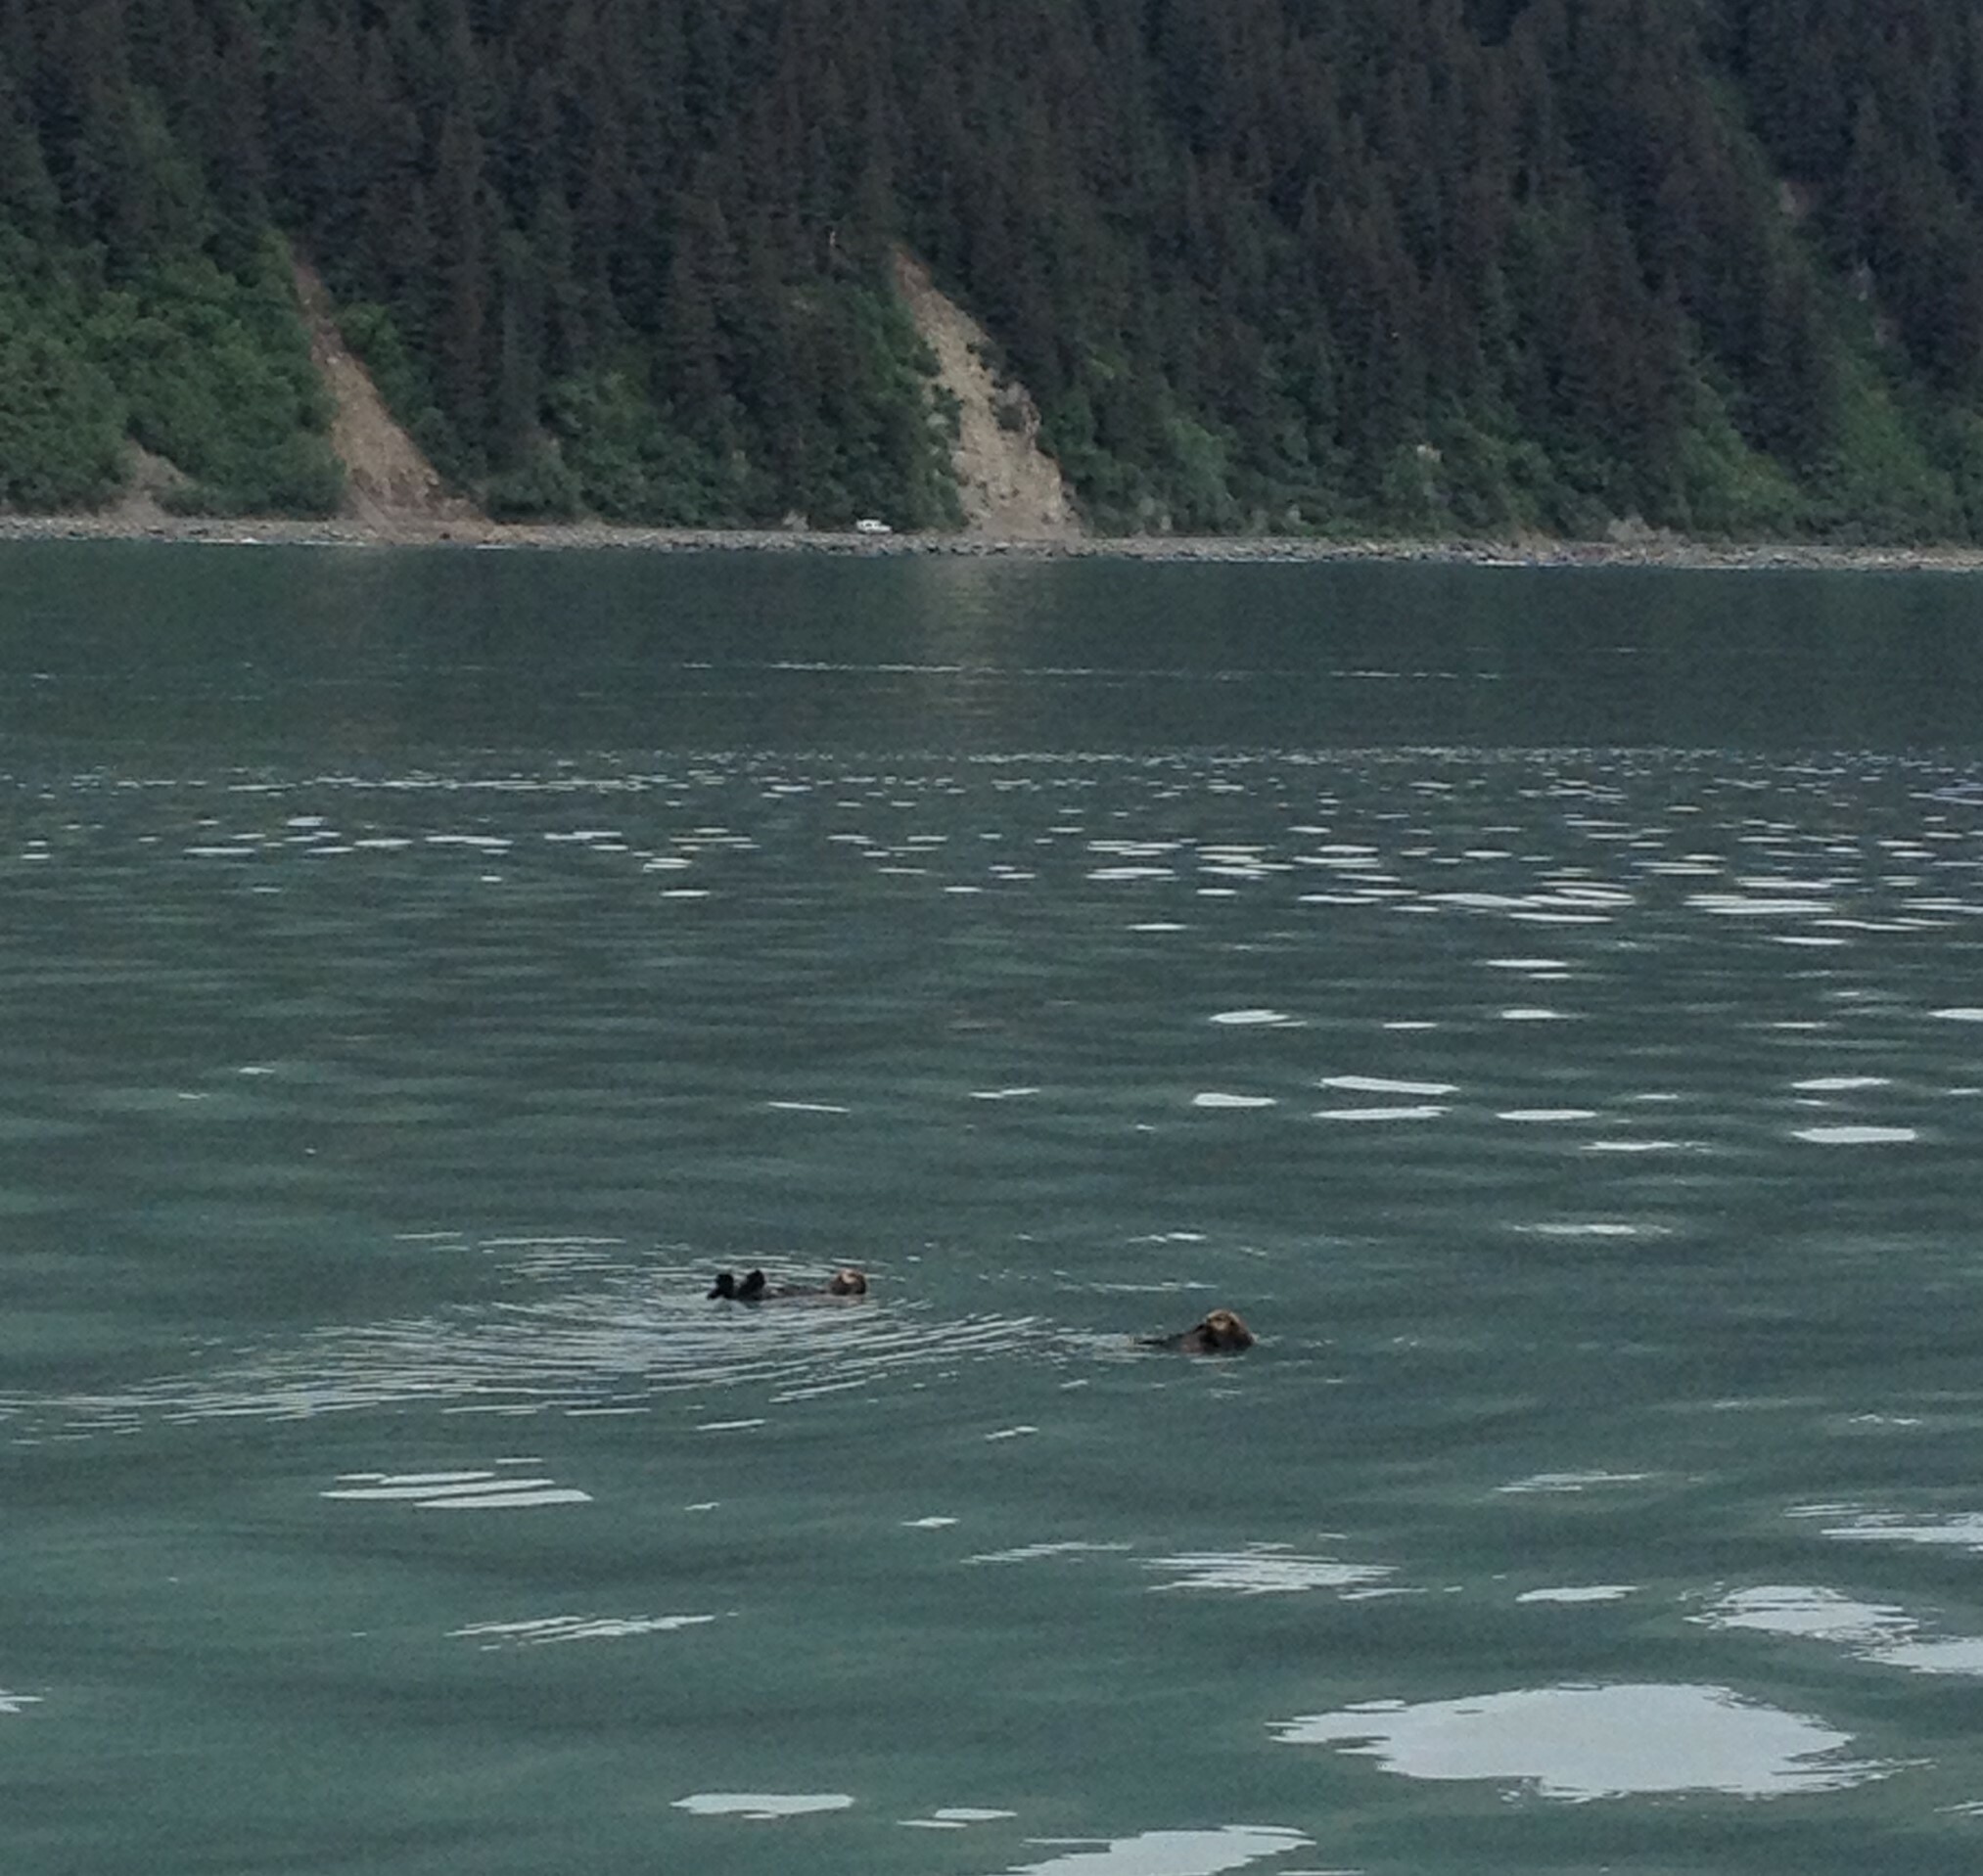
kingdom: Animalia
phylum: Chordata
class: Mammalia
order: Carnivora
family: Mustelidae
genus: Enhydra
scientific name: Enhydra lutris
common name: Sea otter
